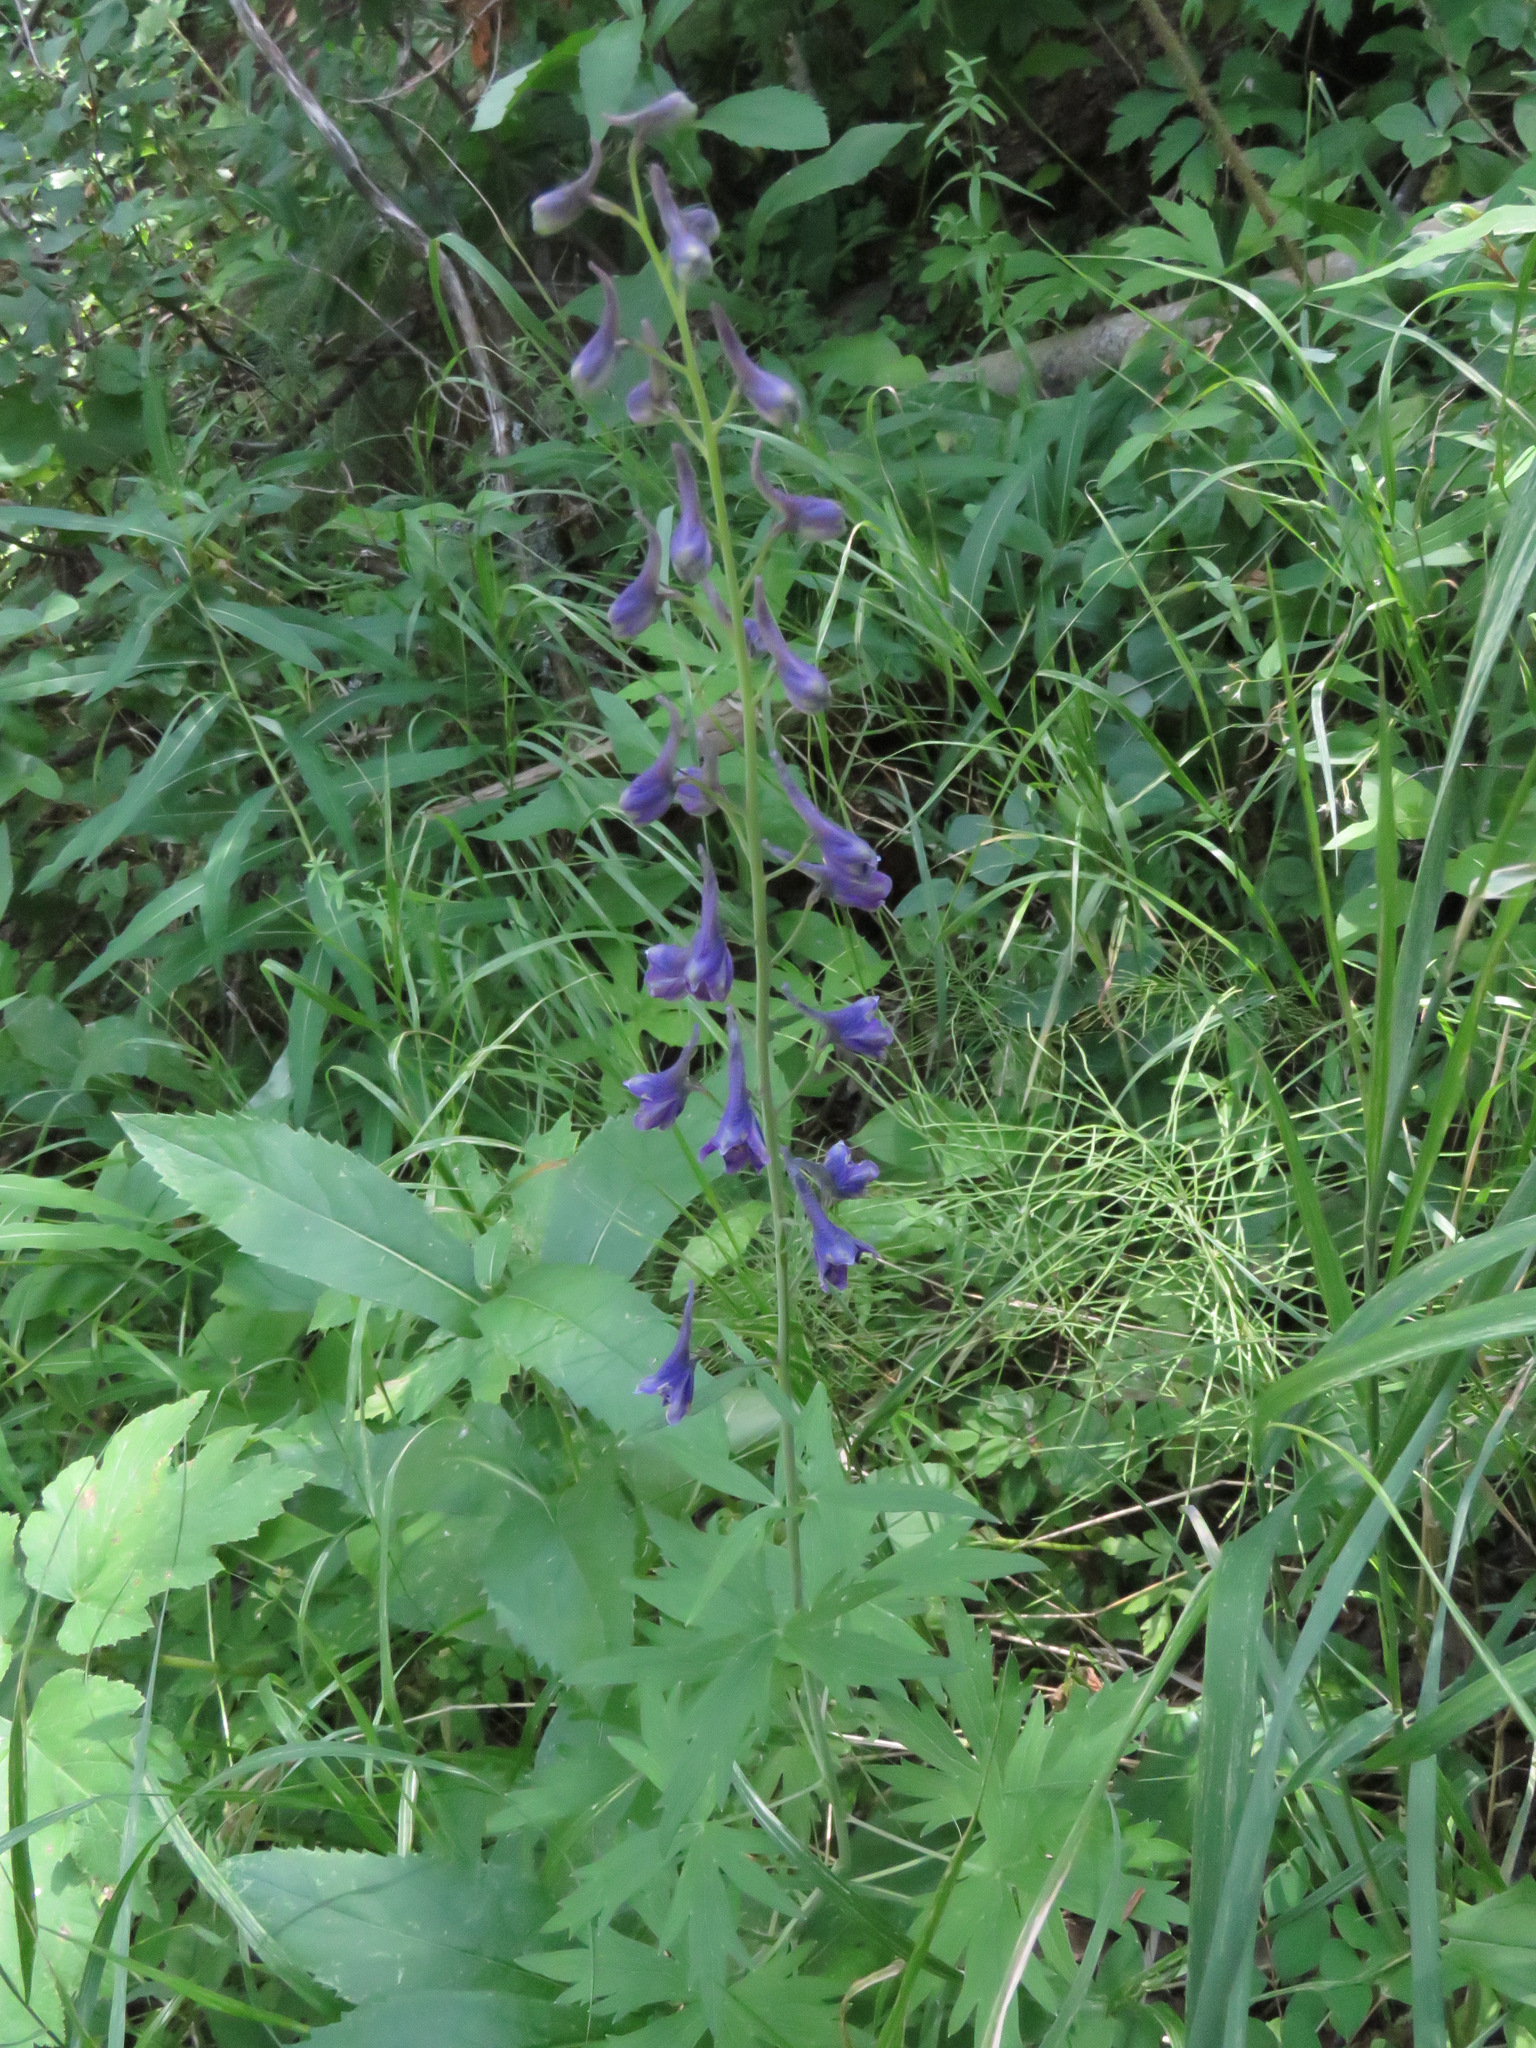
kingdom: Plantae
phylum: Tracheophyta
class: Magnoliopsida
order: Ranunculales
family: Ranunculaceae
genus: Delphinium
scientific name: Delphinium glaucum
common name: Brown's larkspur
